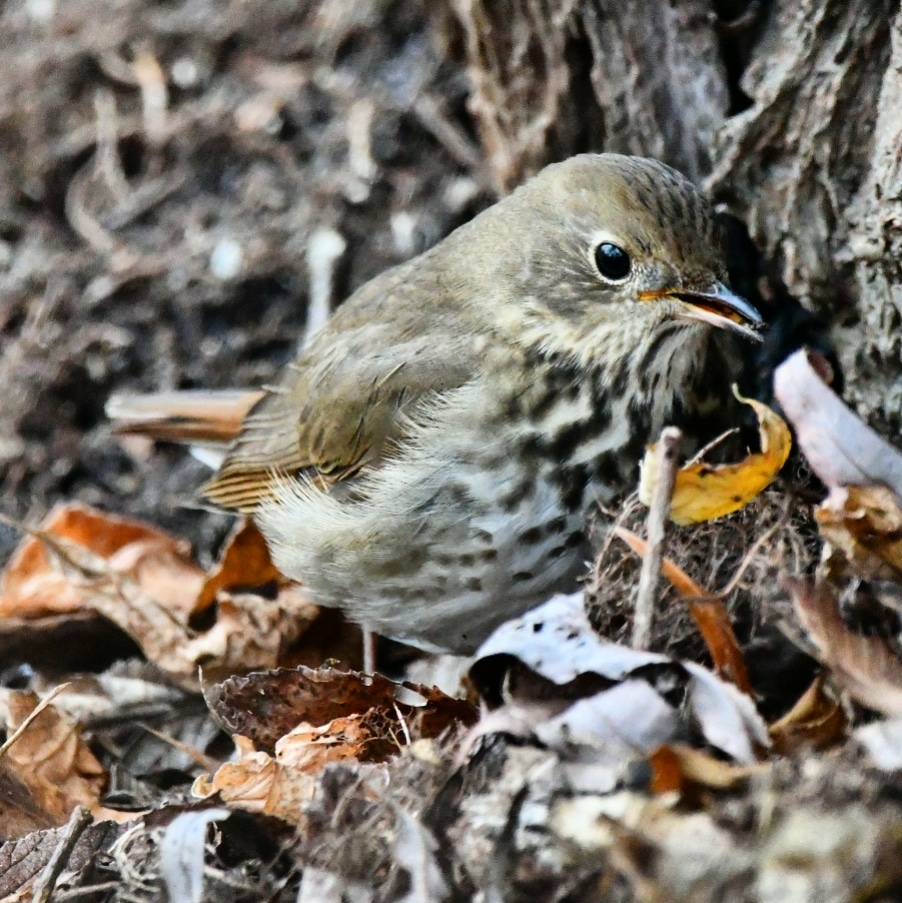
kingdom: Animalia
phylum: Chordata
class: Aves
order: Passeriformes
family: Turdidae
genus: Catharus
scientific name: Catharus guttatus
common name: Hermit thrush
